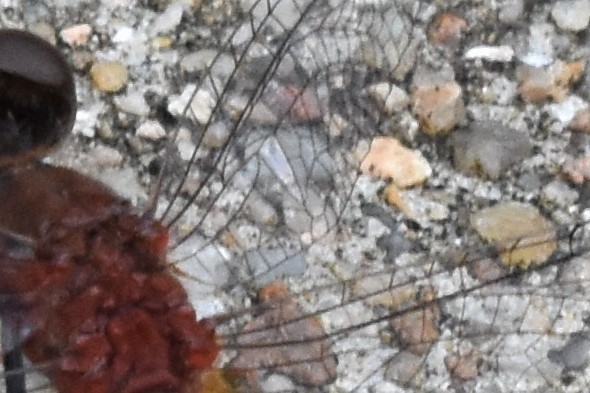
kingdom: Animalia
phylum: Arthropoda
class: Insecta
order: Odonata
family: Libellulidae
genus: Nannodiplax
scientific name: Nannodiplax rubra
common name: Pygmy percher
